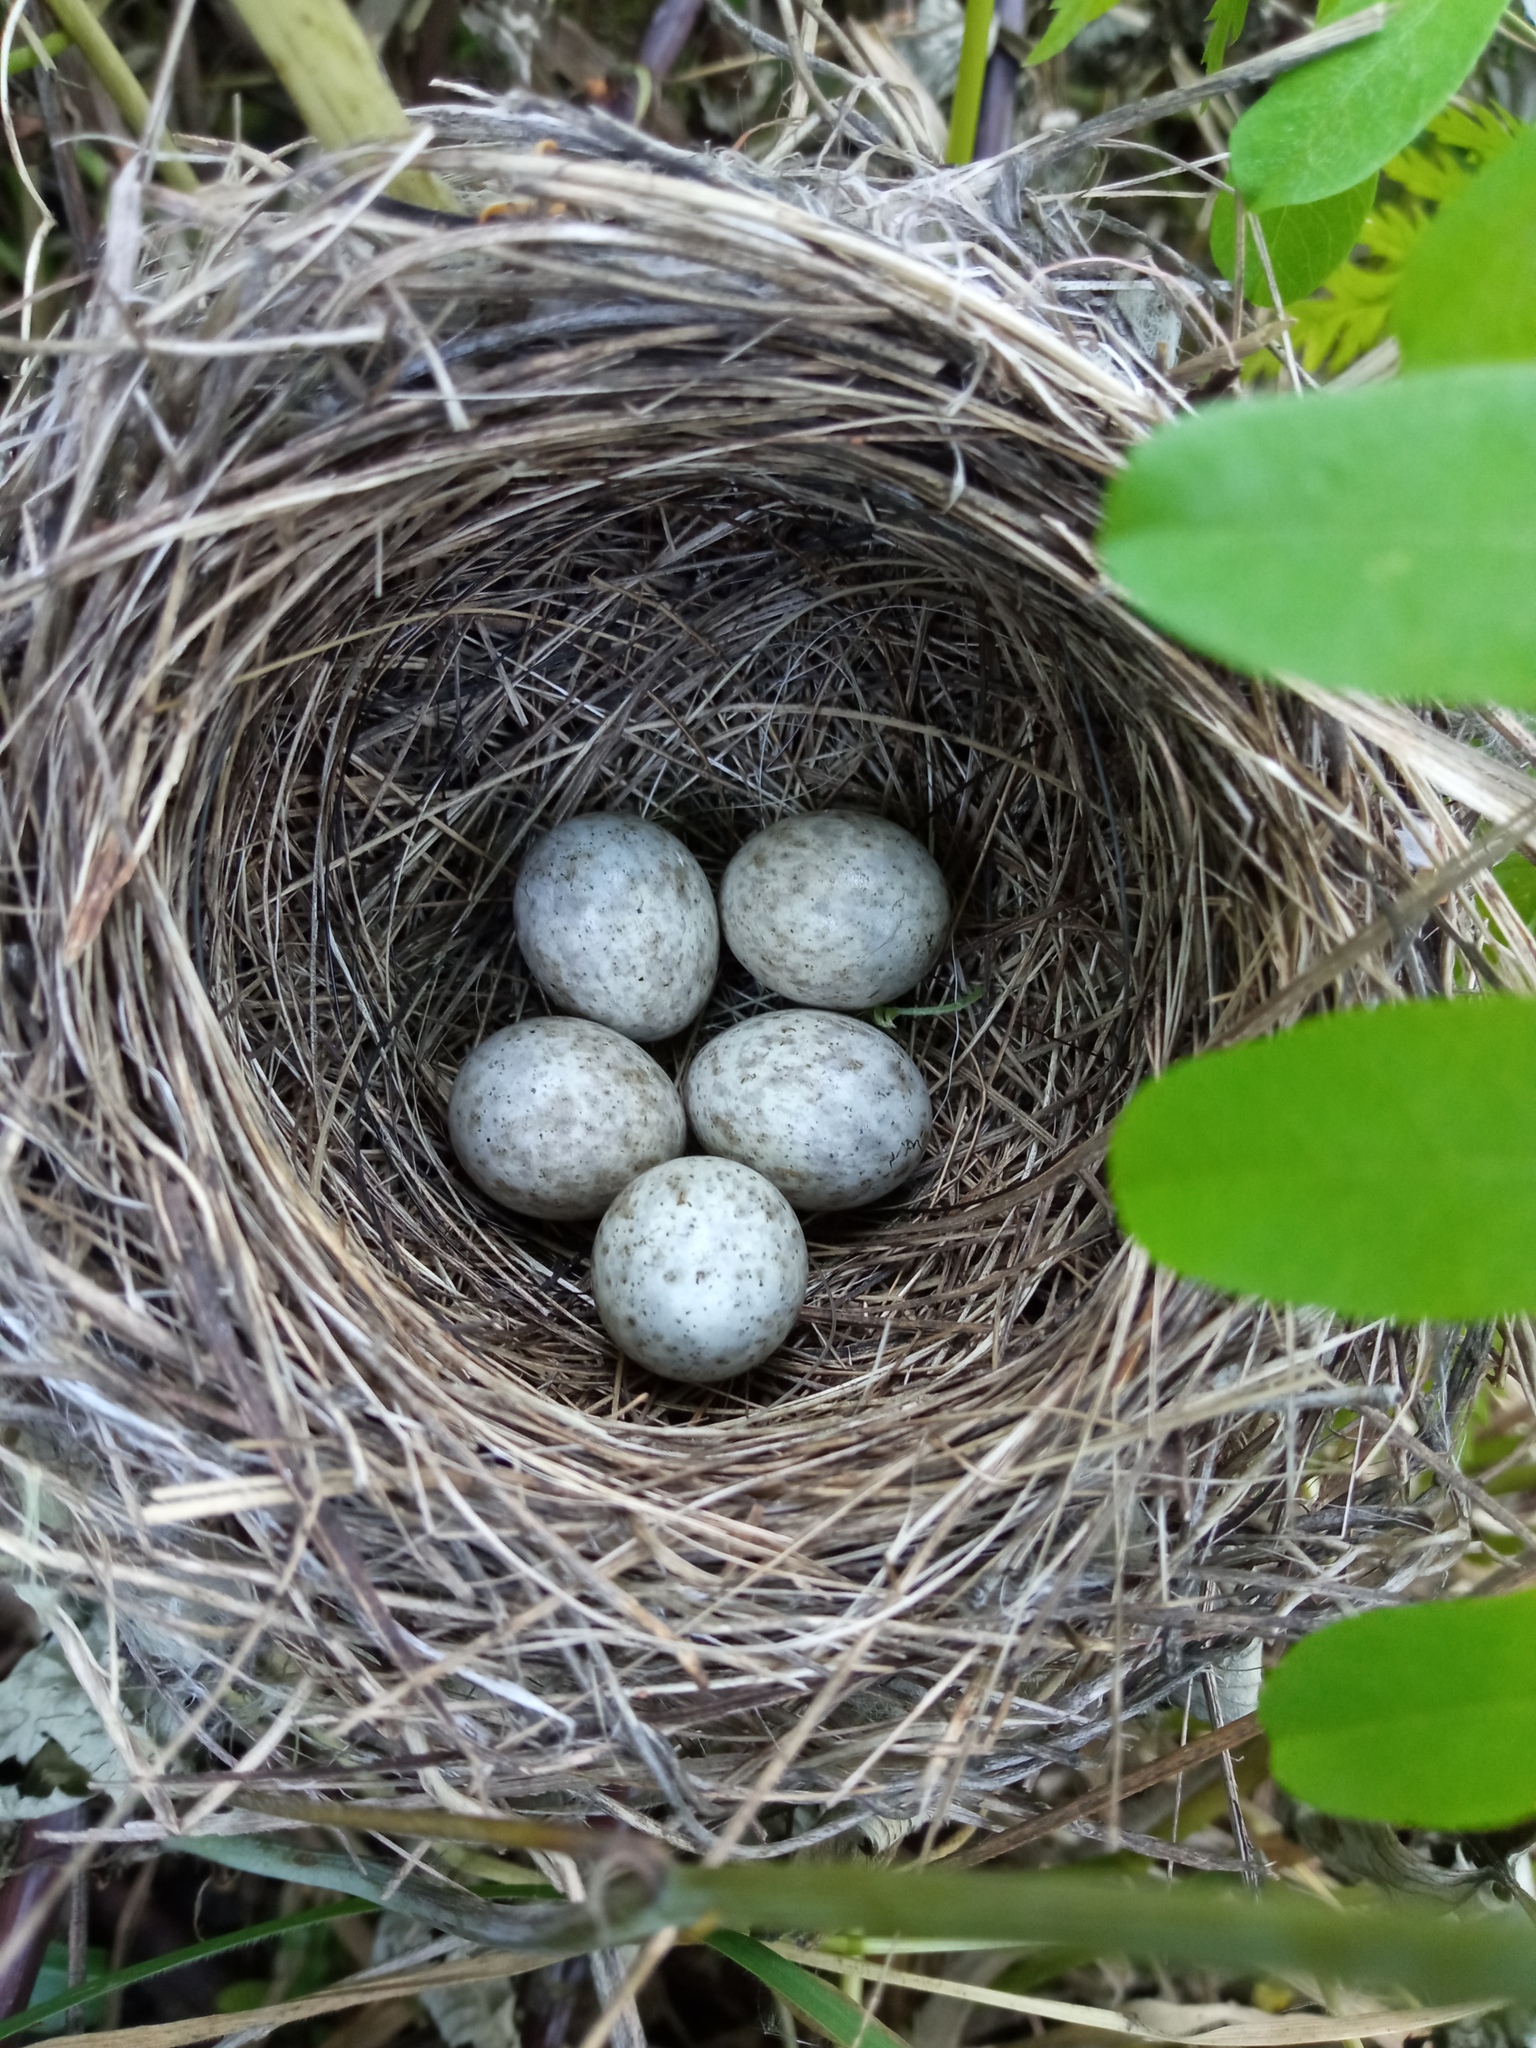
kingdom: Animalia
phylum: Chordata
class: Aves
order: Passeriformes
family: Acrocephalidae
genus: Acrocephalus
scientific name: Acrocephalus dumetorum
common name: Blyth's reed warbler
